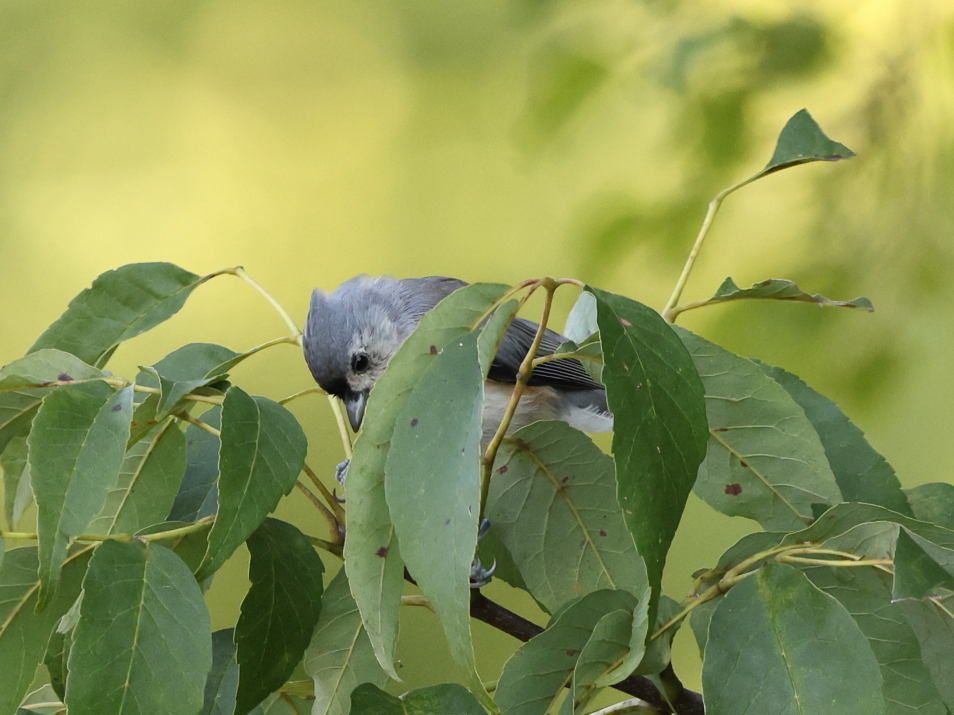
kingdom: Animalia
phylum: Chordata
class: Aves
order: Passeriformes
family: Paridae
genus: Baeolophus
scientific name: Baeolophus bicolor
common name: Tufted titmouse
